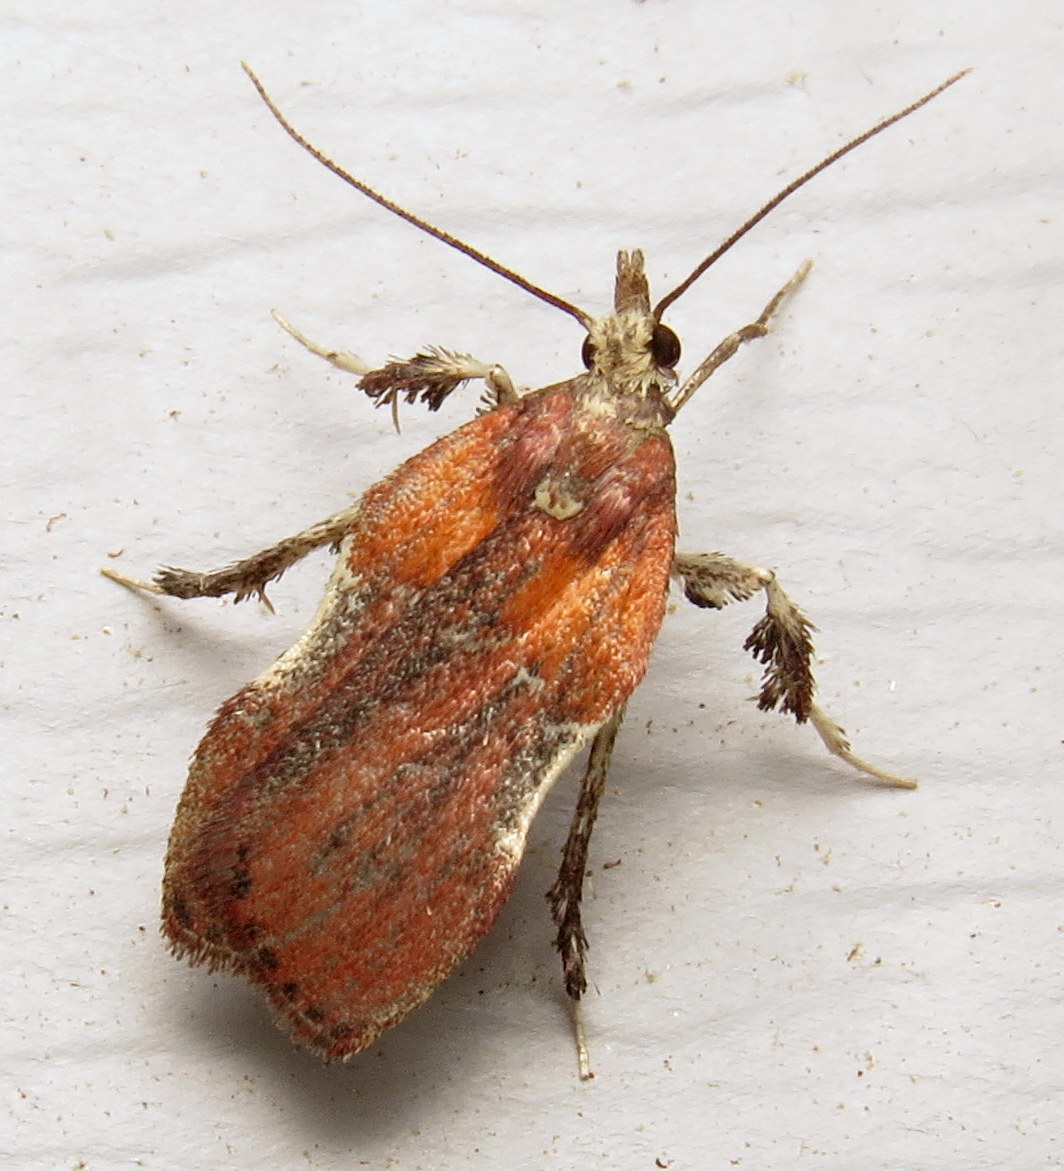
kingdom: Animalia
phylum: Arthropoda
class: Insecta
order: Lepidoptera
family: Pyralidae
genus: Galasa
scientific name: Galasa nigrinodis
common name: Boxwood leaftier moth
